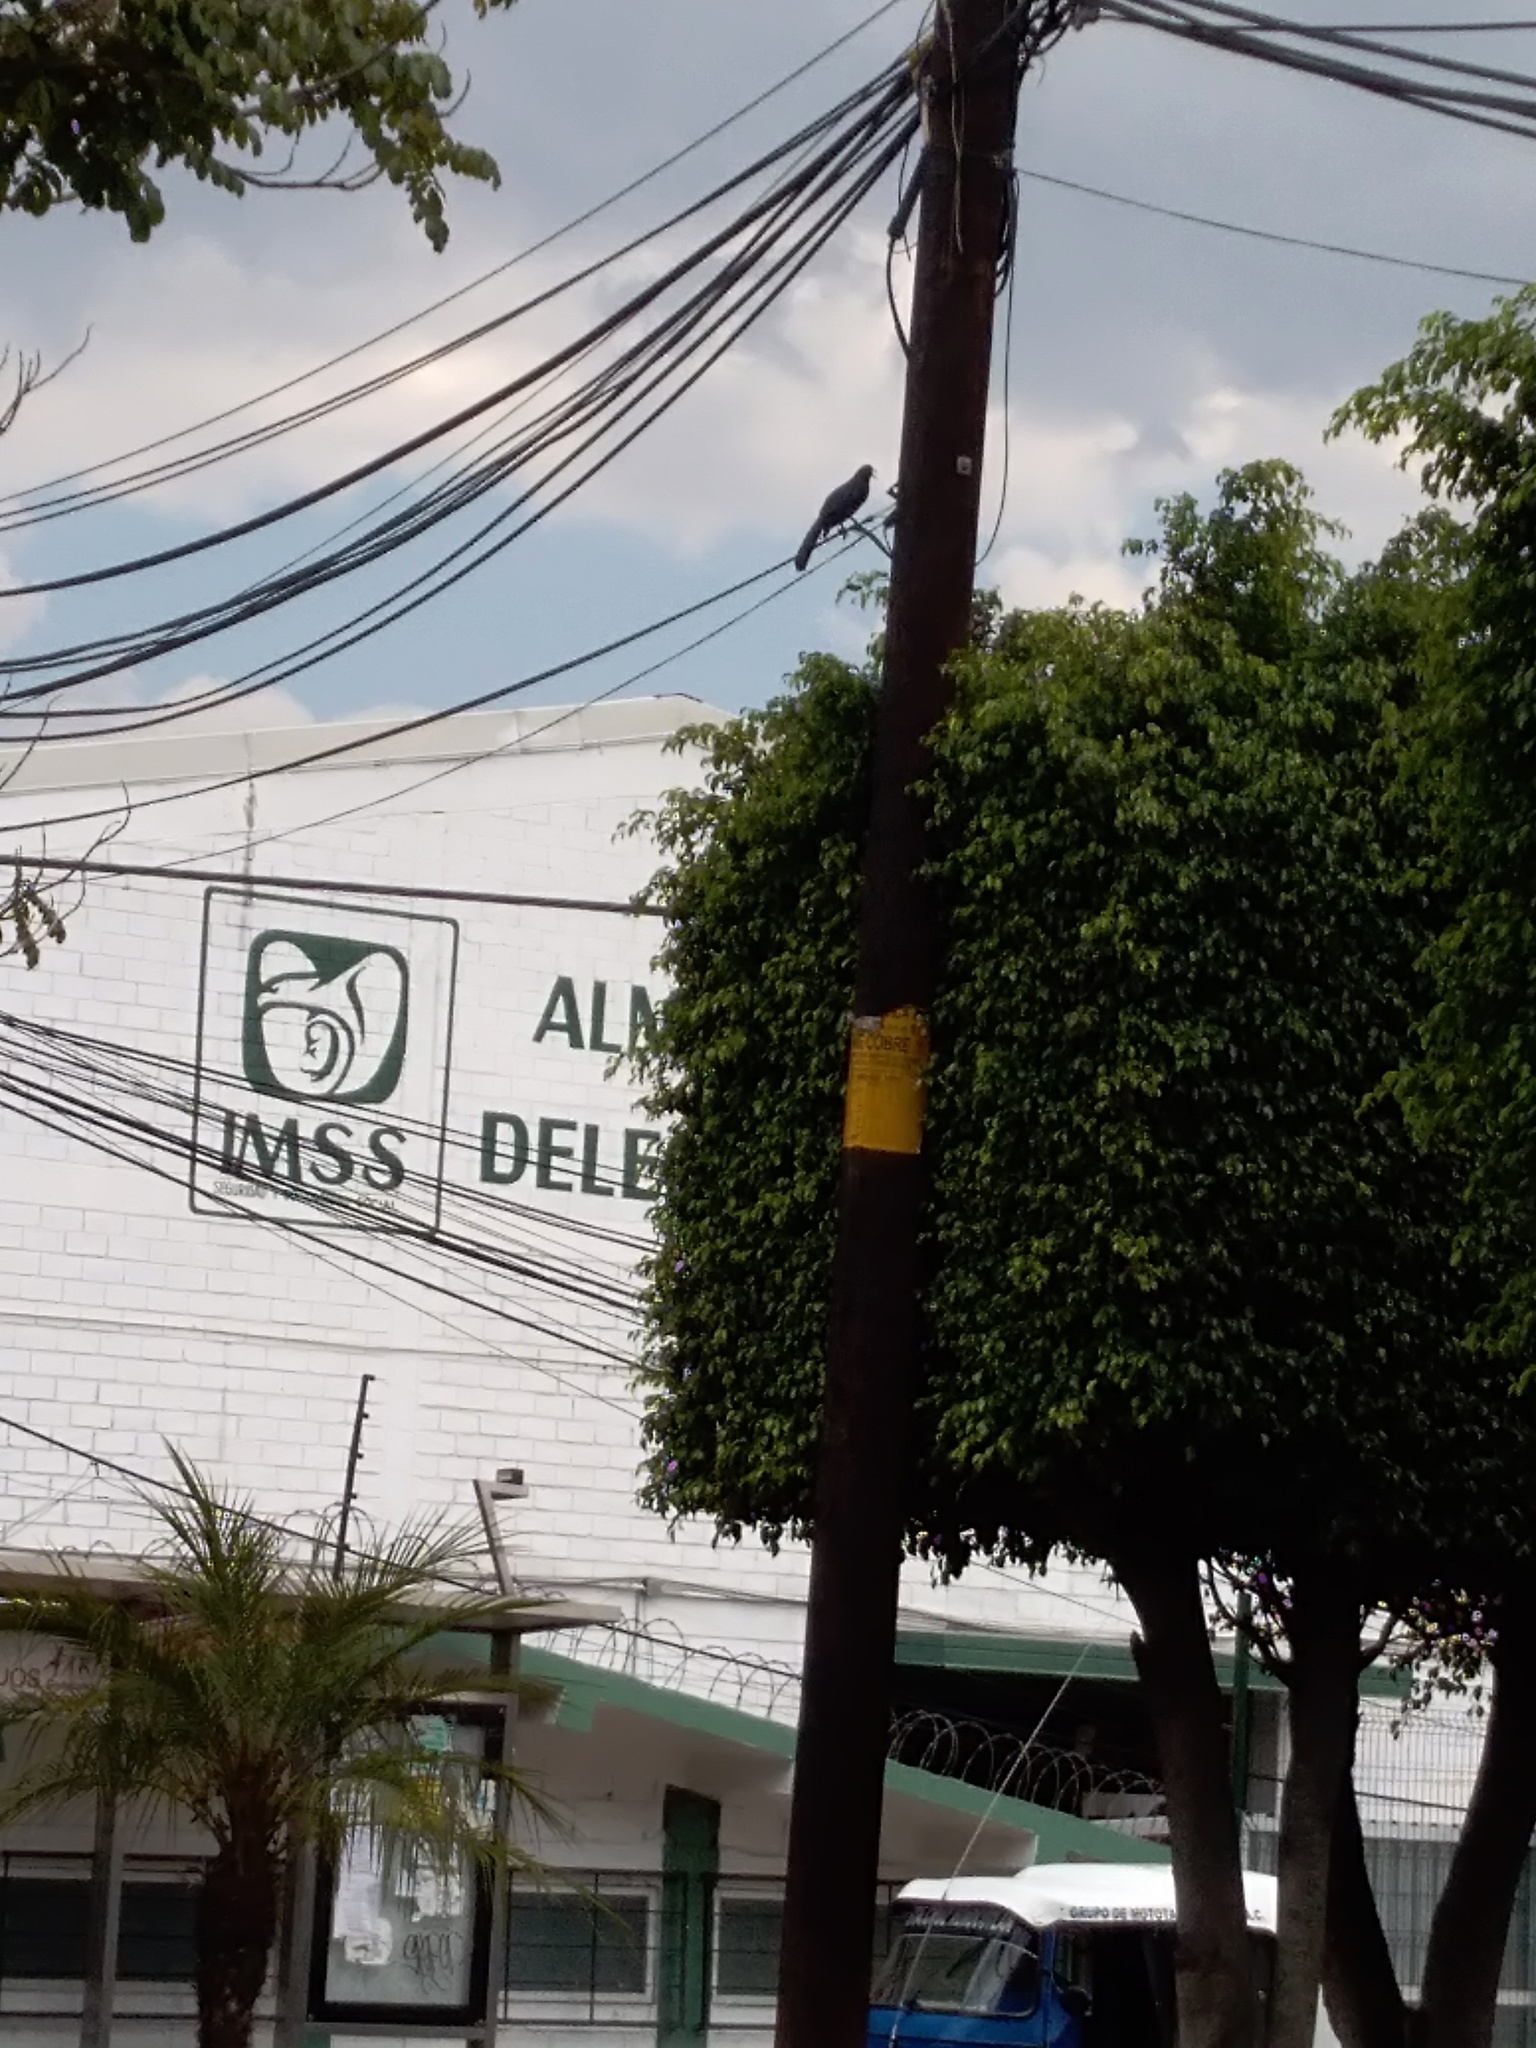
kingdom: Animalia
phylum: Chordata
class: Aves
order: Passeriformes
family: Icteridae
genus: Quiscalus
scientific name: Quiscalus mexicanus
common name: Great-tailed grackle
